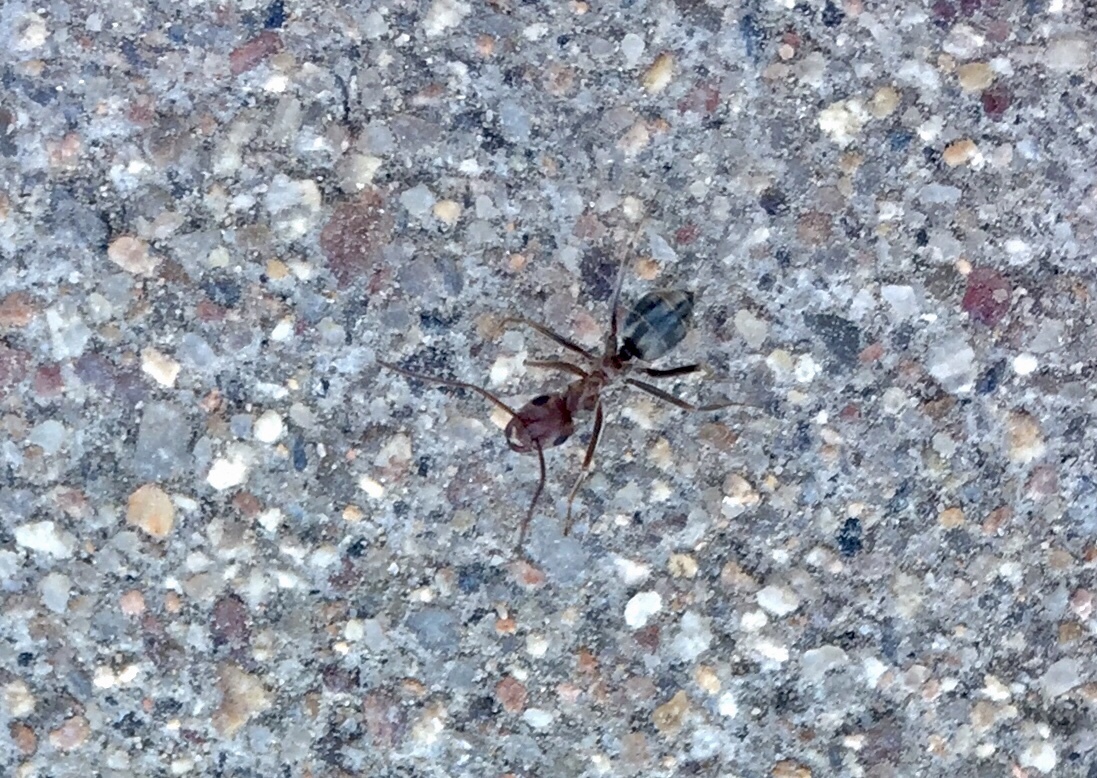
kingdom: Animalia
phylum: Arthropoda
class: Insecta
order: Hymenoptera
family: Formicidae
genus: Anoplolepis
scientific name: Anoplolepis custodiens
